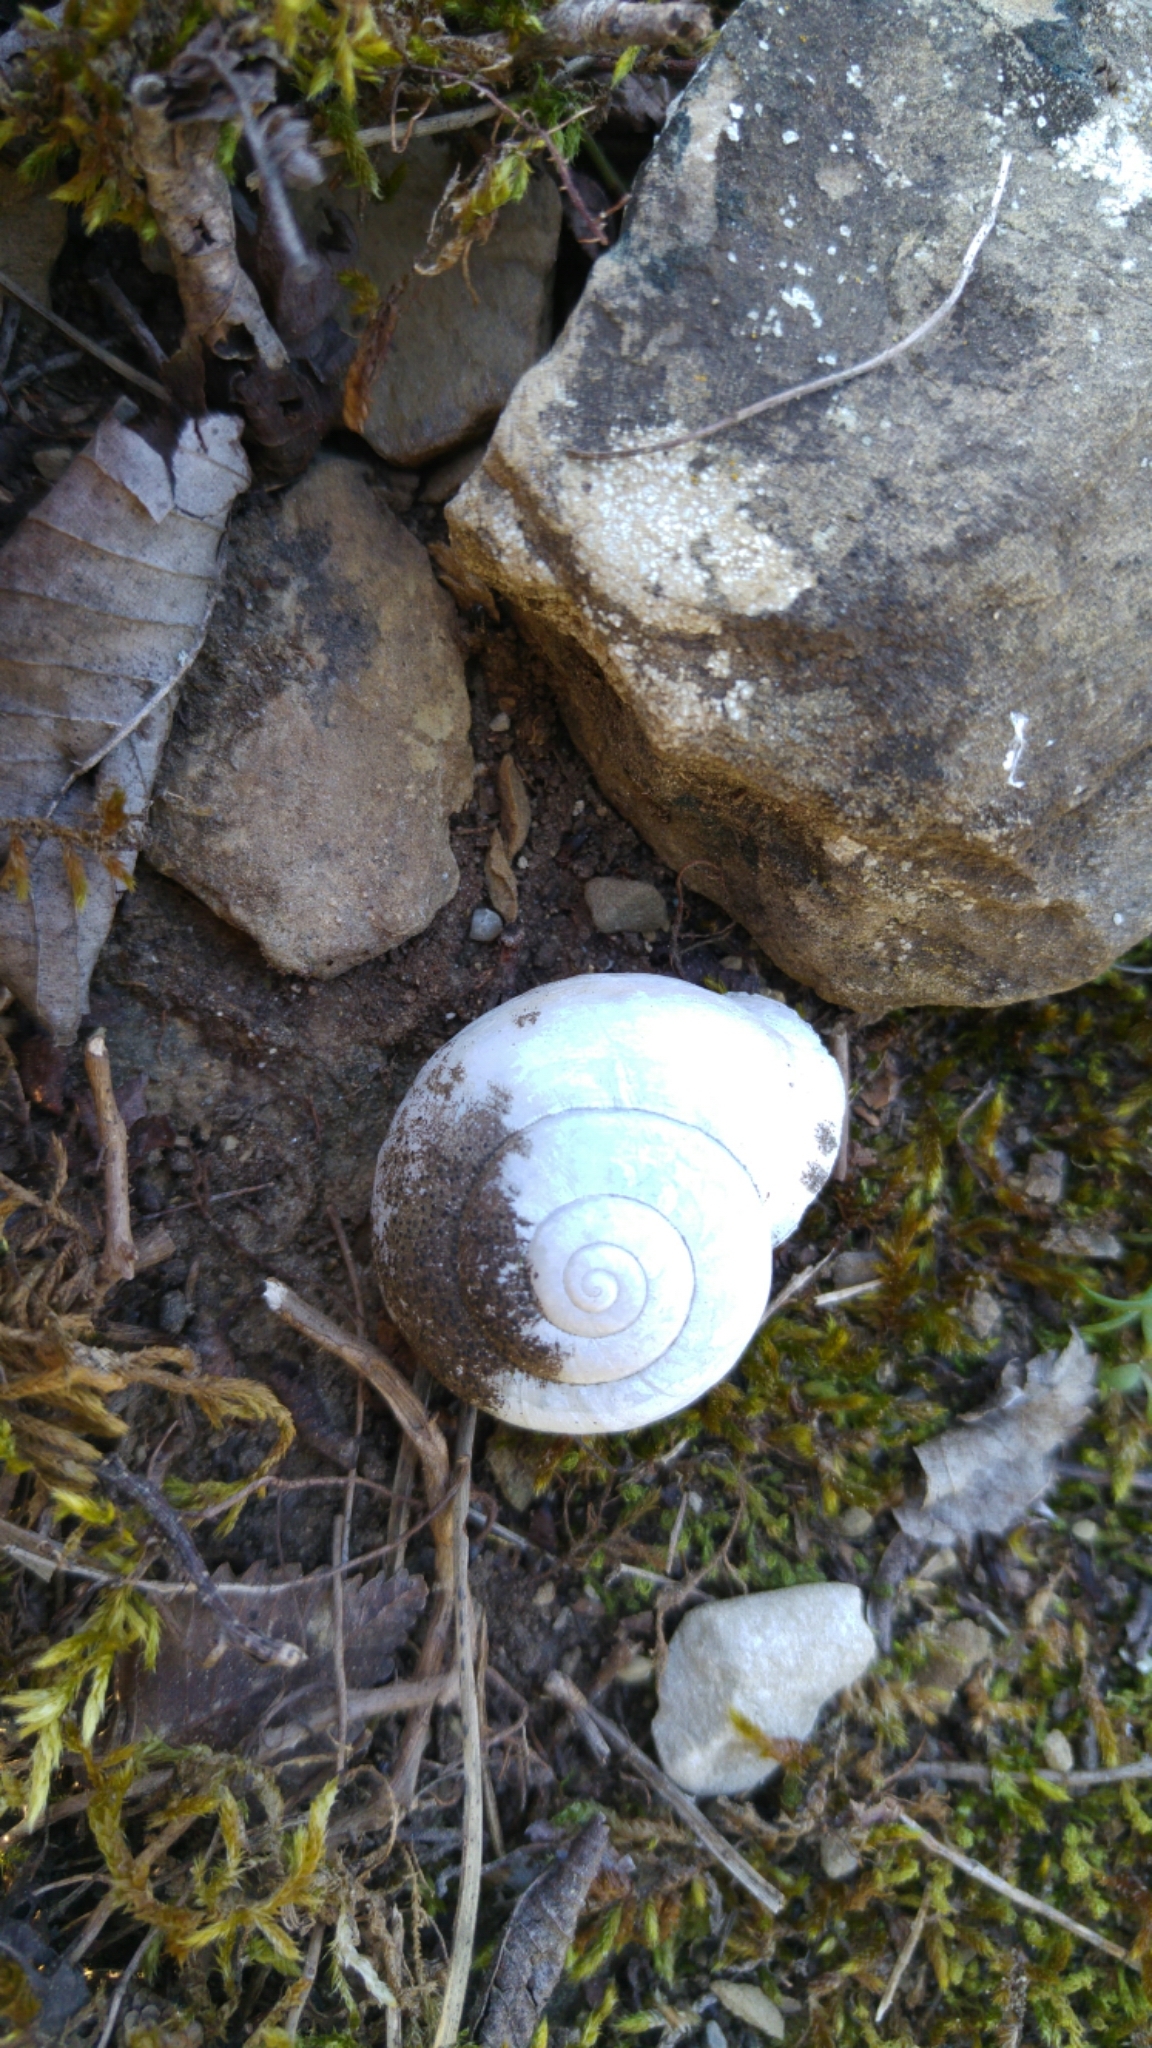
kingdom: Animalia
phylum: Mollusca
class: Gastropoda
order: Stylommatophora
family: Helicidae
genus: Eobania
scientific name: Eobania vermiculata
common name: Chocolateband snail
